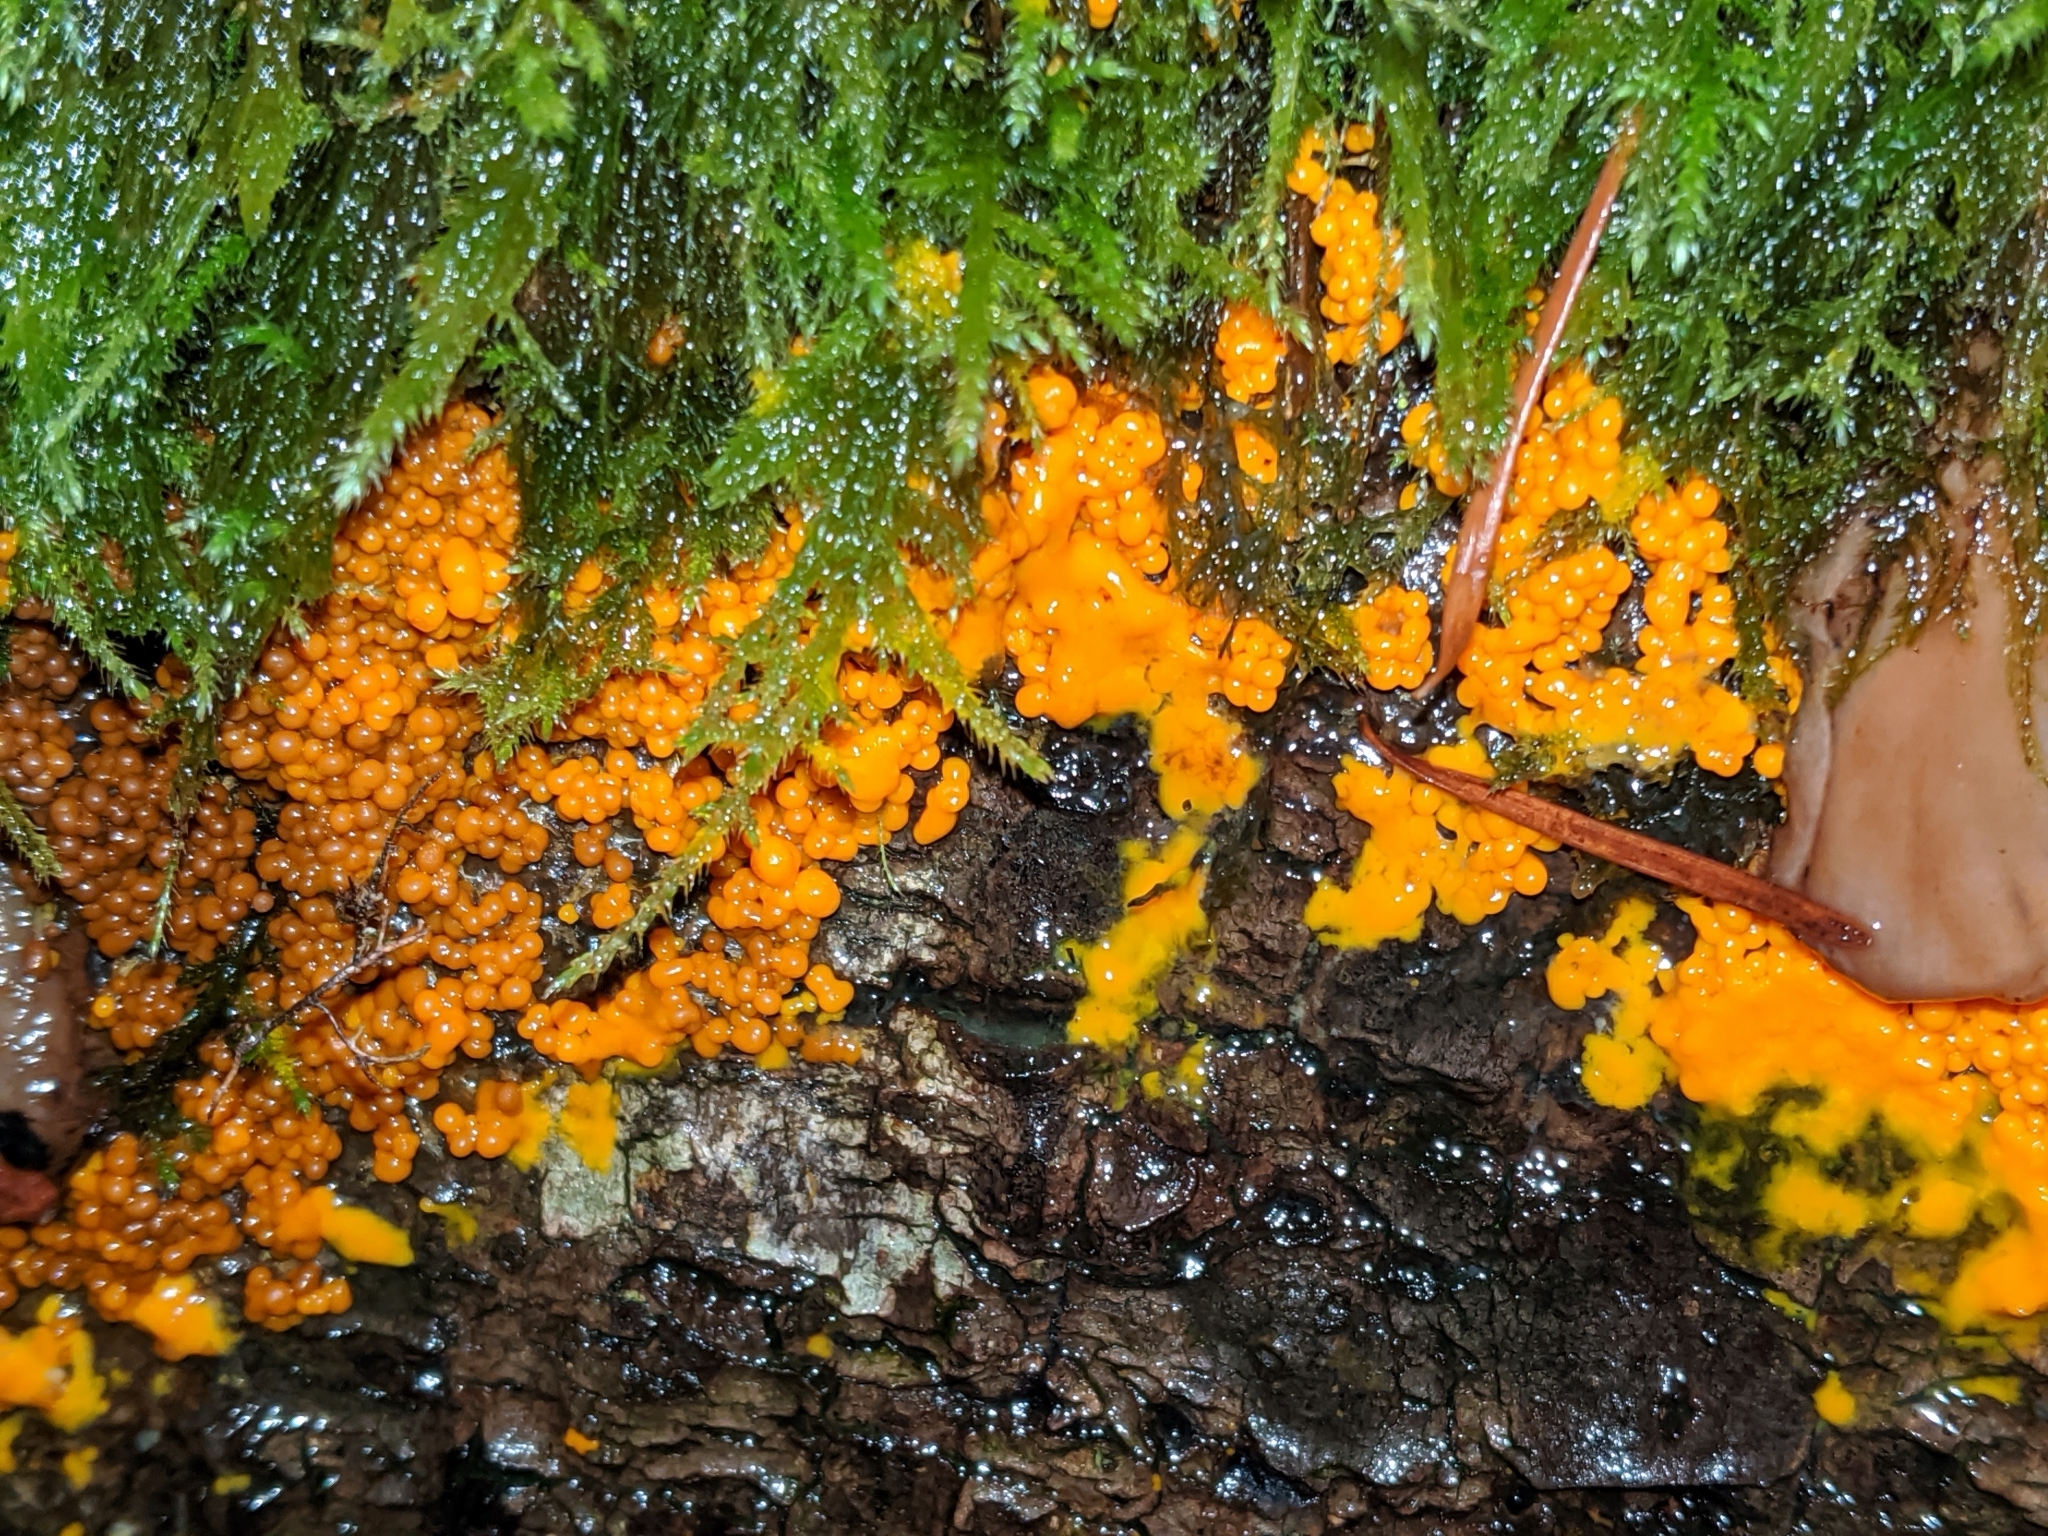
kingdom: Protozoa
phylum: Mycetozoa
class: Myxomycetes
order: Physarales
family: Physaraceae
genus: Badhamia
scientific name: Badhamia utricularis
